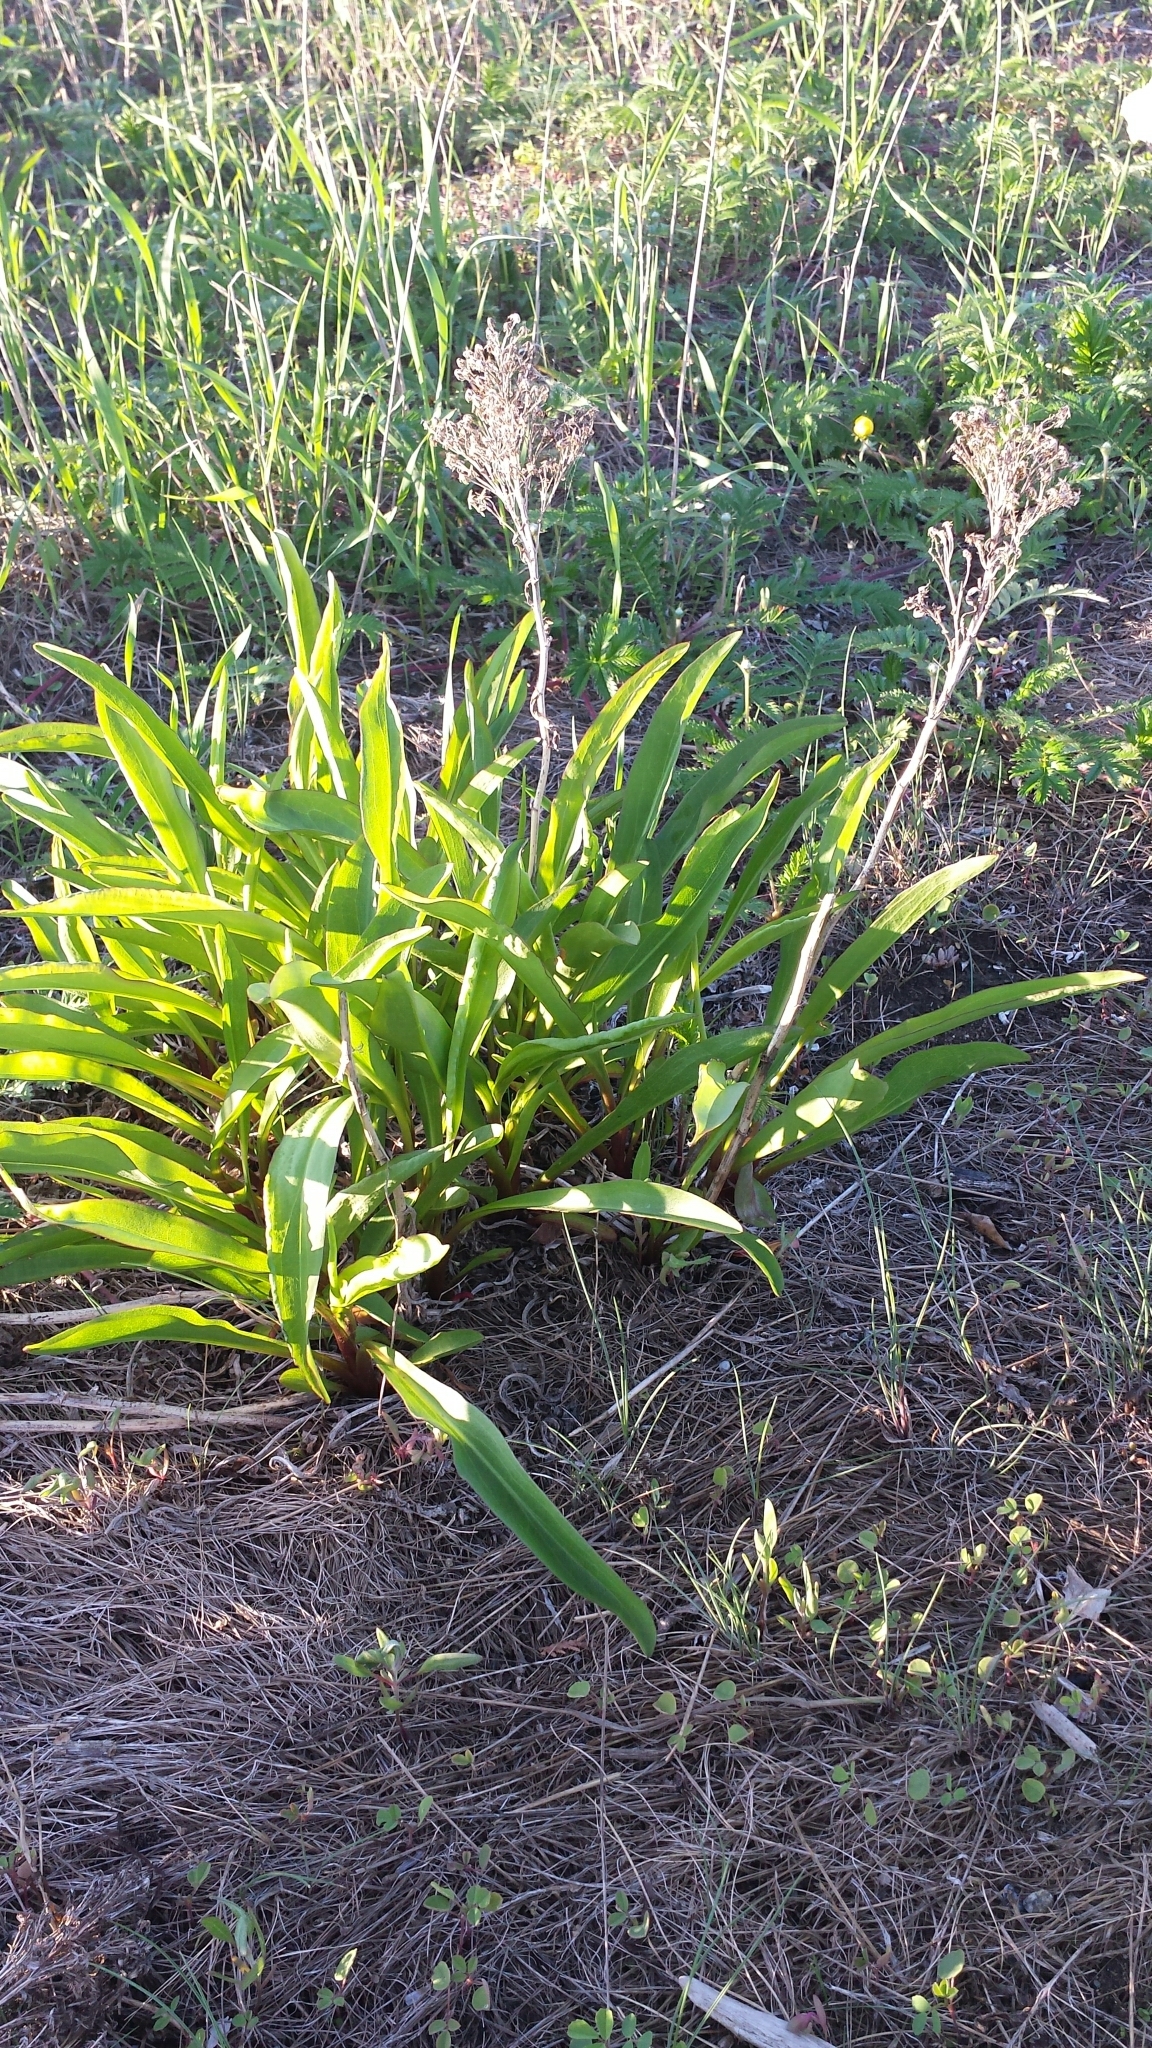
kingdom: Plantae
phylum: Tracheophyta
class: Magnoliopsida
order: Asterales
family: Asteraceae
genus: Solidago
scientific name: Solidago sempervirens
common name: Salt-marsh goldenrod
